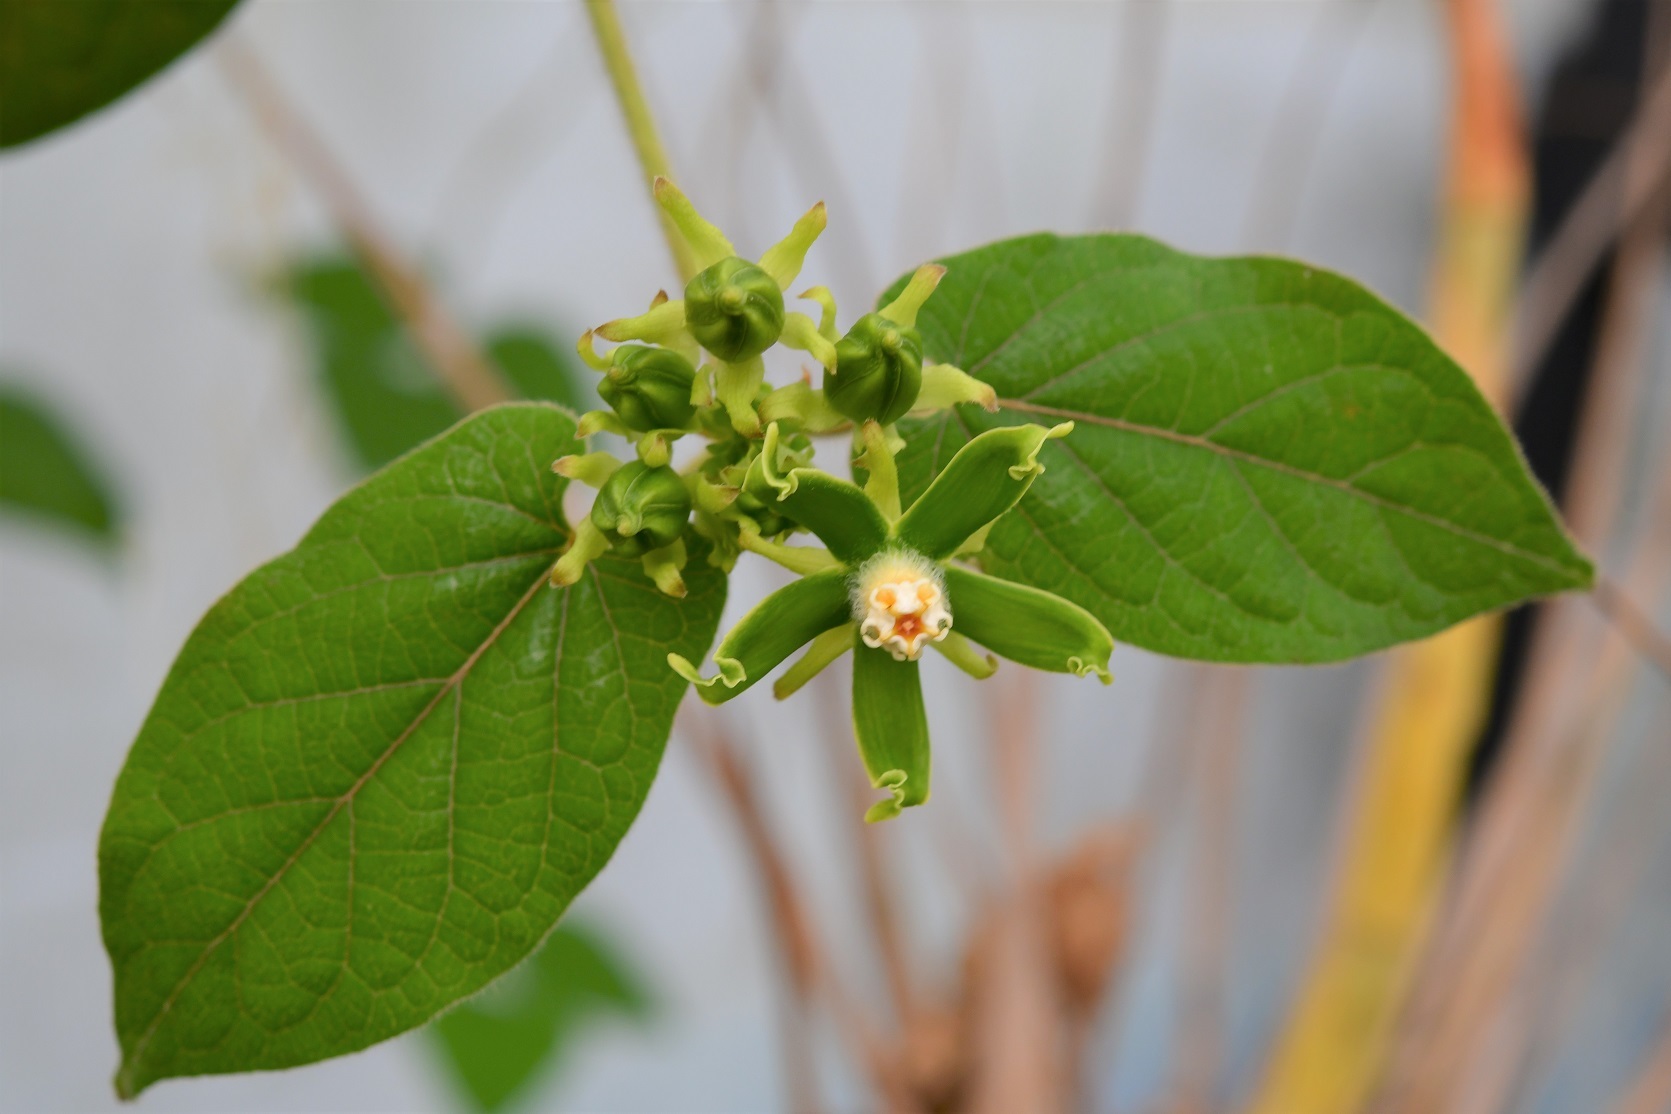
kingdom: Plantae
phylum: Tracheophyta
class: Magnoliopsida
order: Gentianales
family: Apocynaceae
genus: Gonolobus
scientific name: Gonolobus stenosepalus
